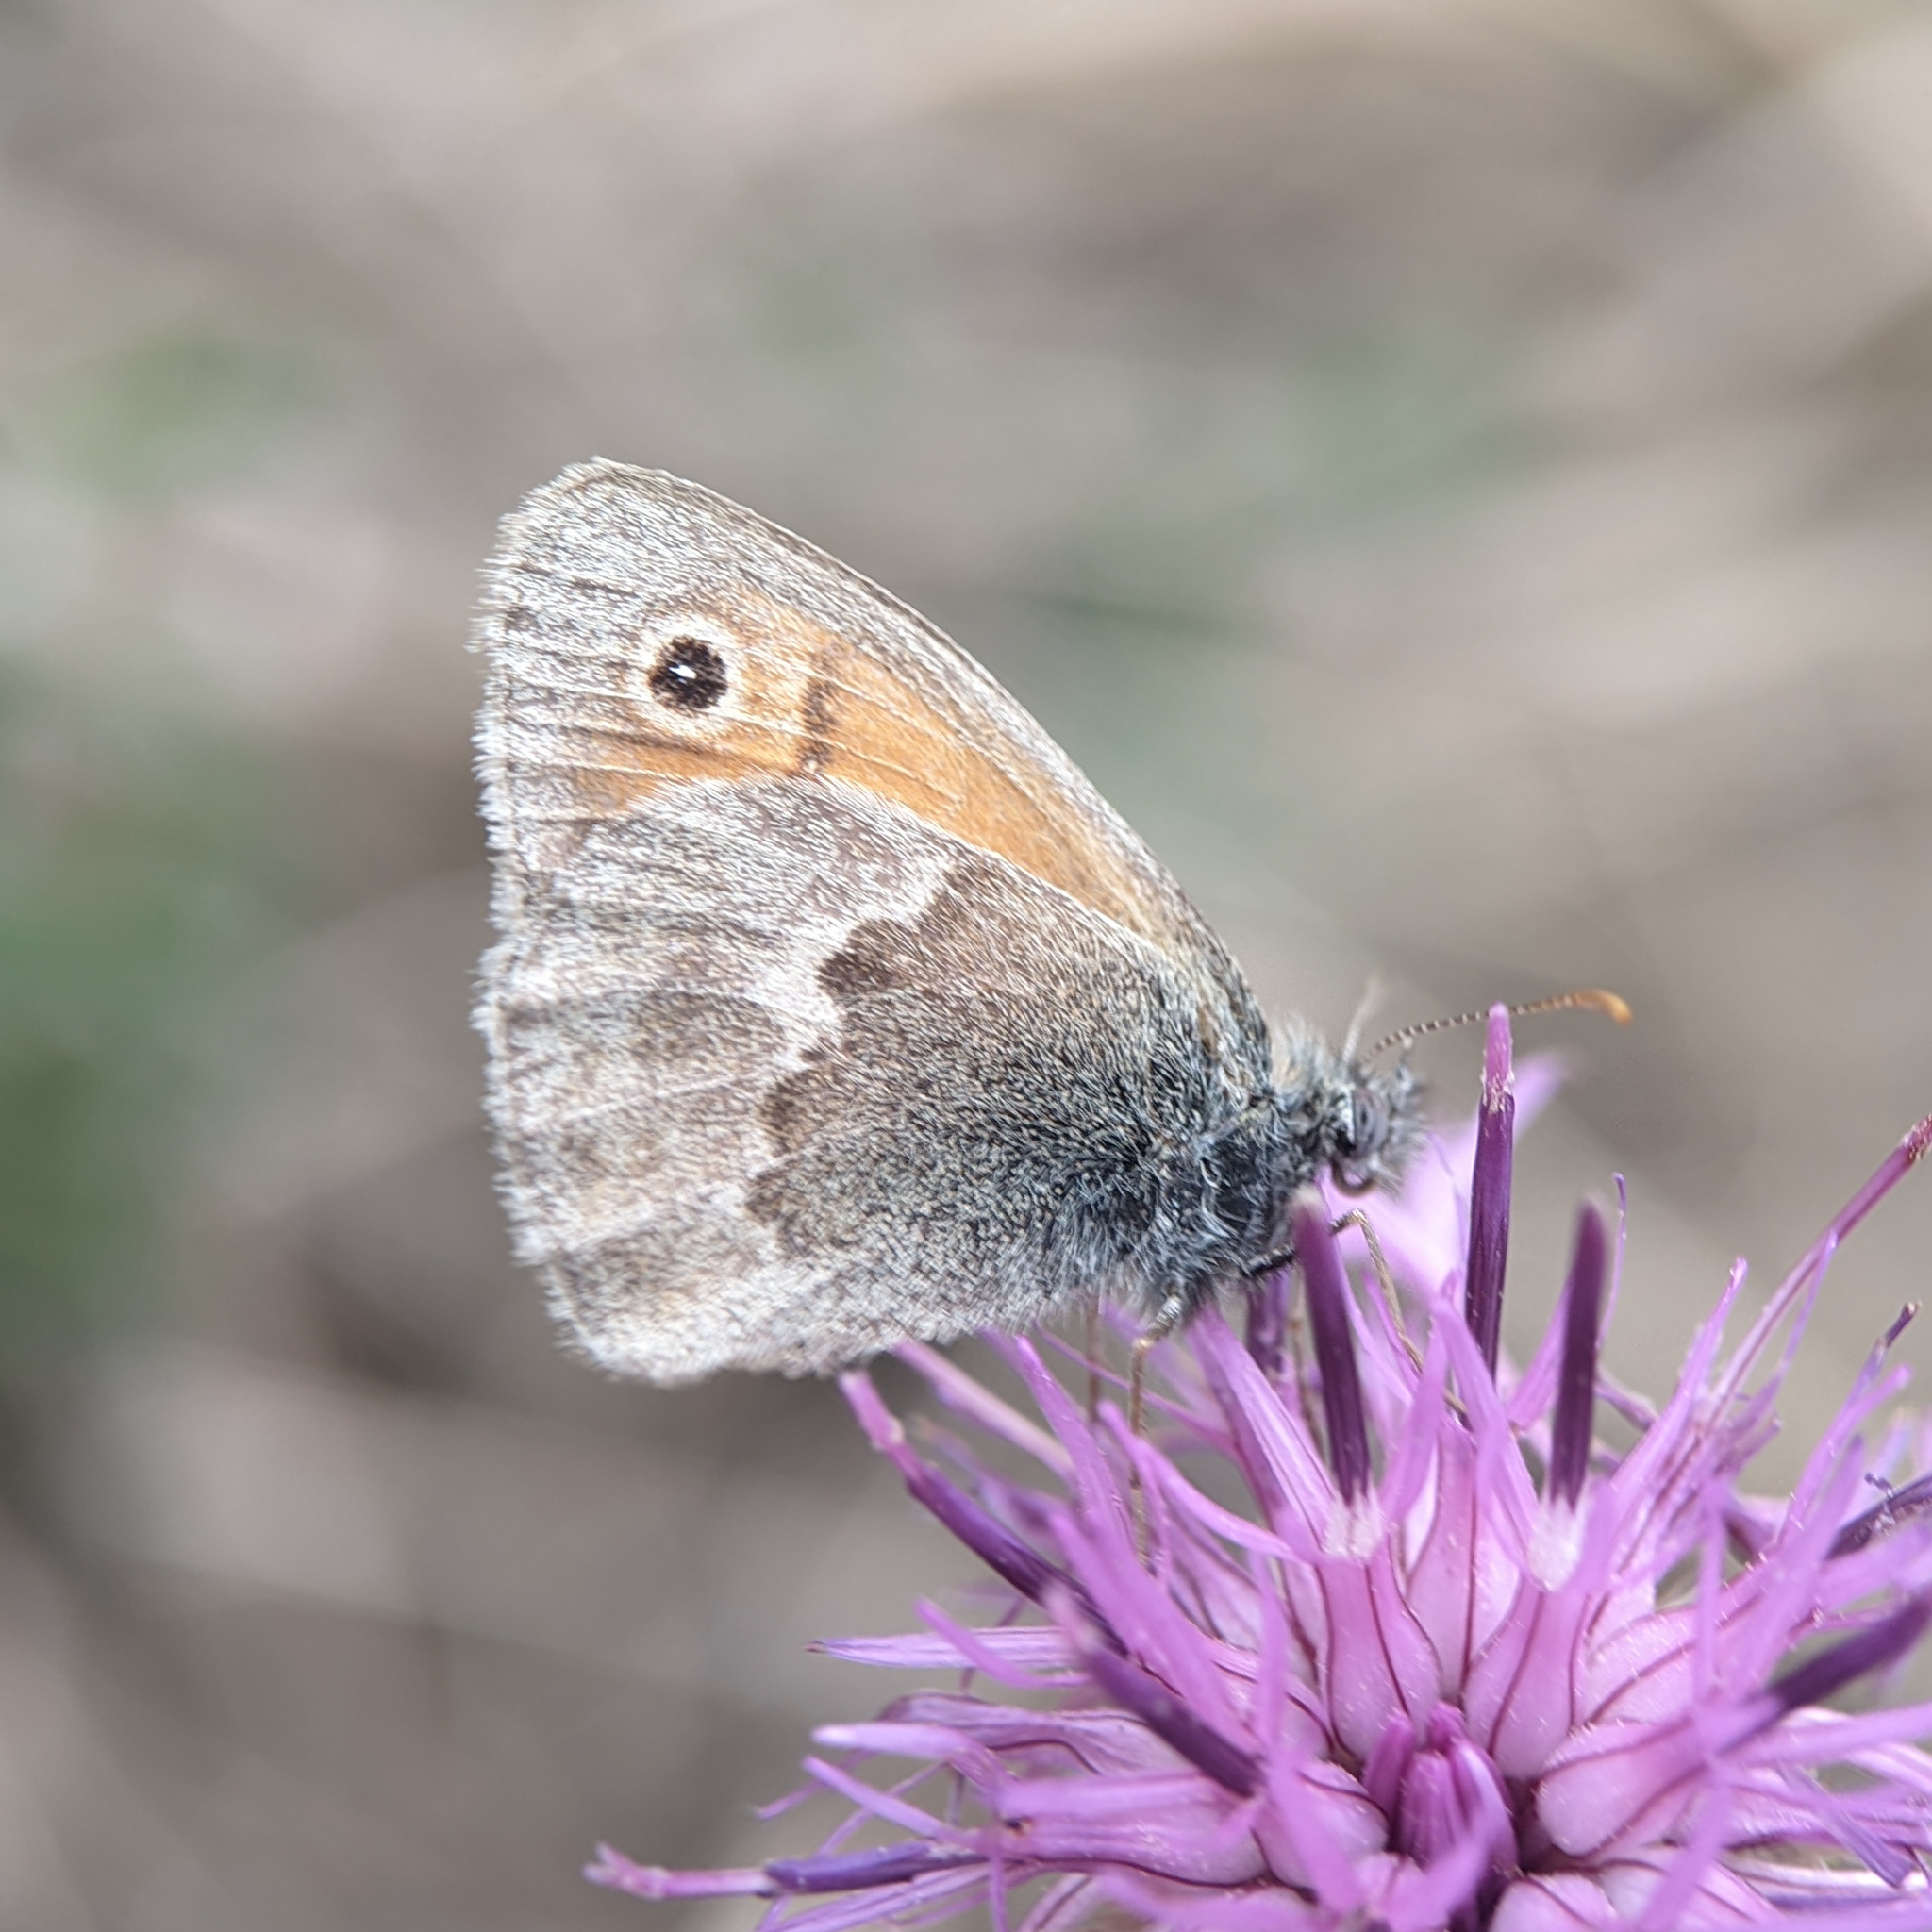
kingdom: Animalia
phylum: Arthropoda
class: Insecta
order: Lepidoptera
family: Nymphalidae
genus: Coenonympha
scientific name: Coenonympha pamphilus
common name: Small heath
